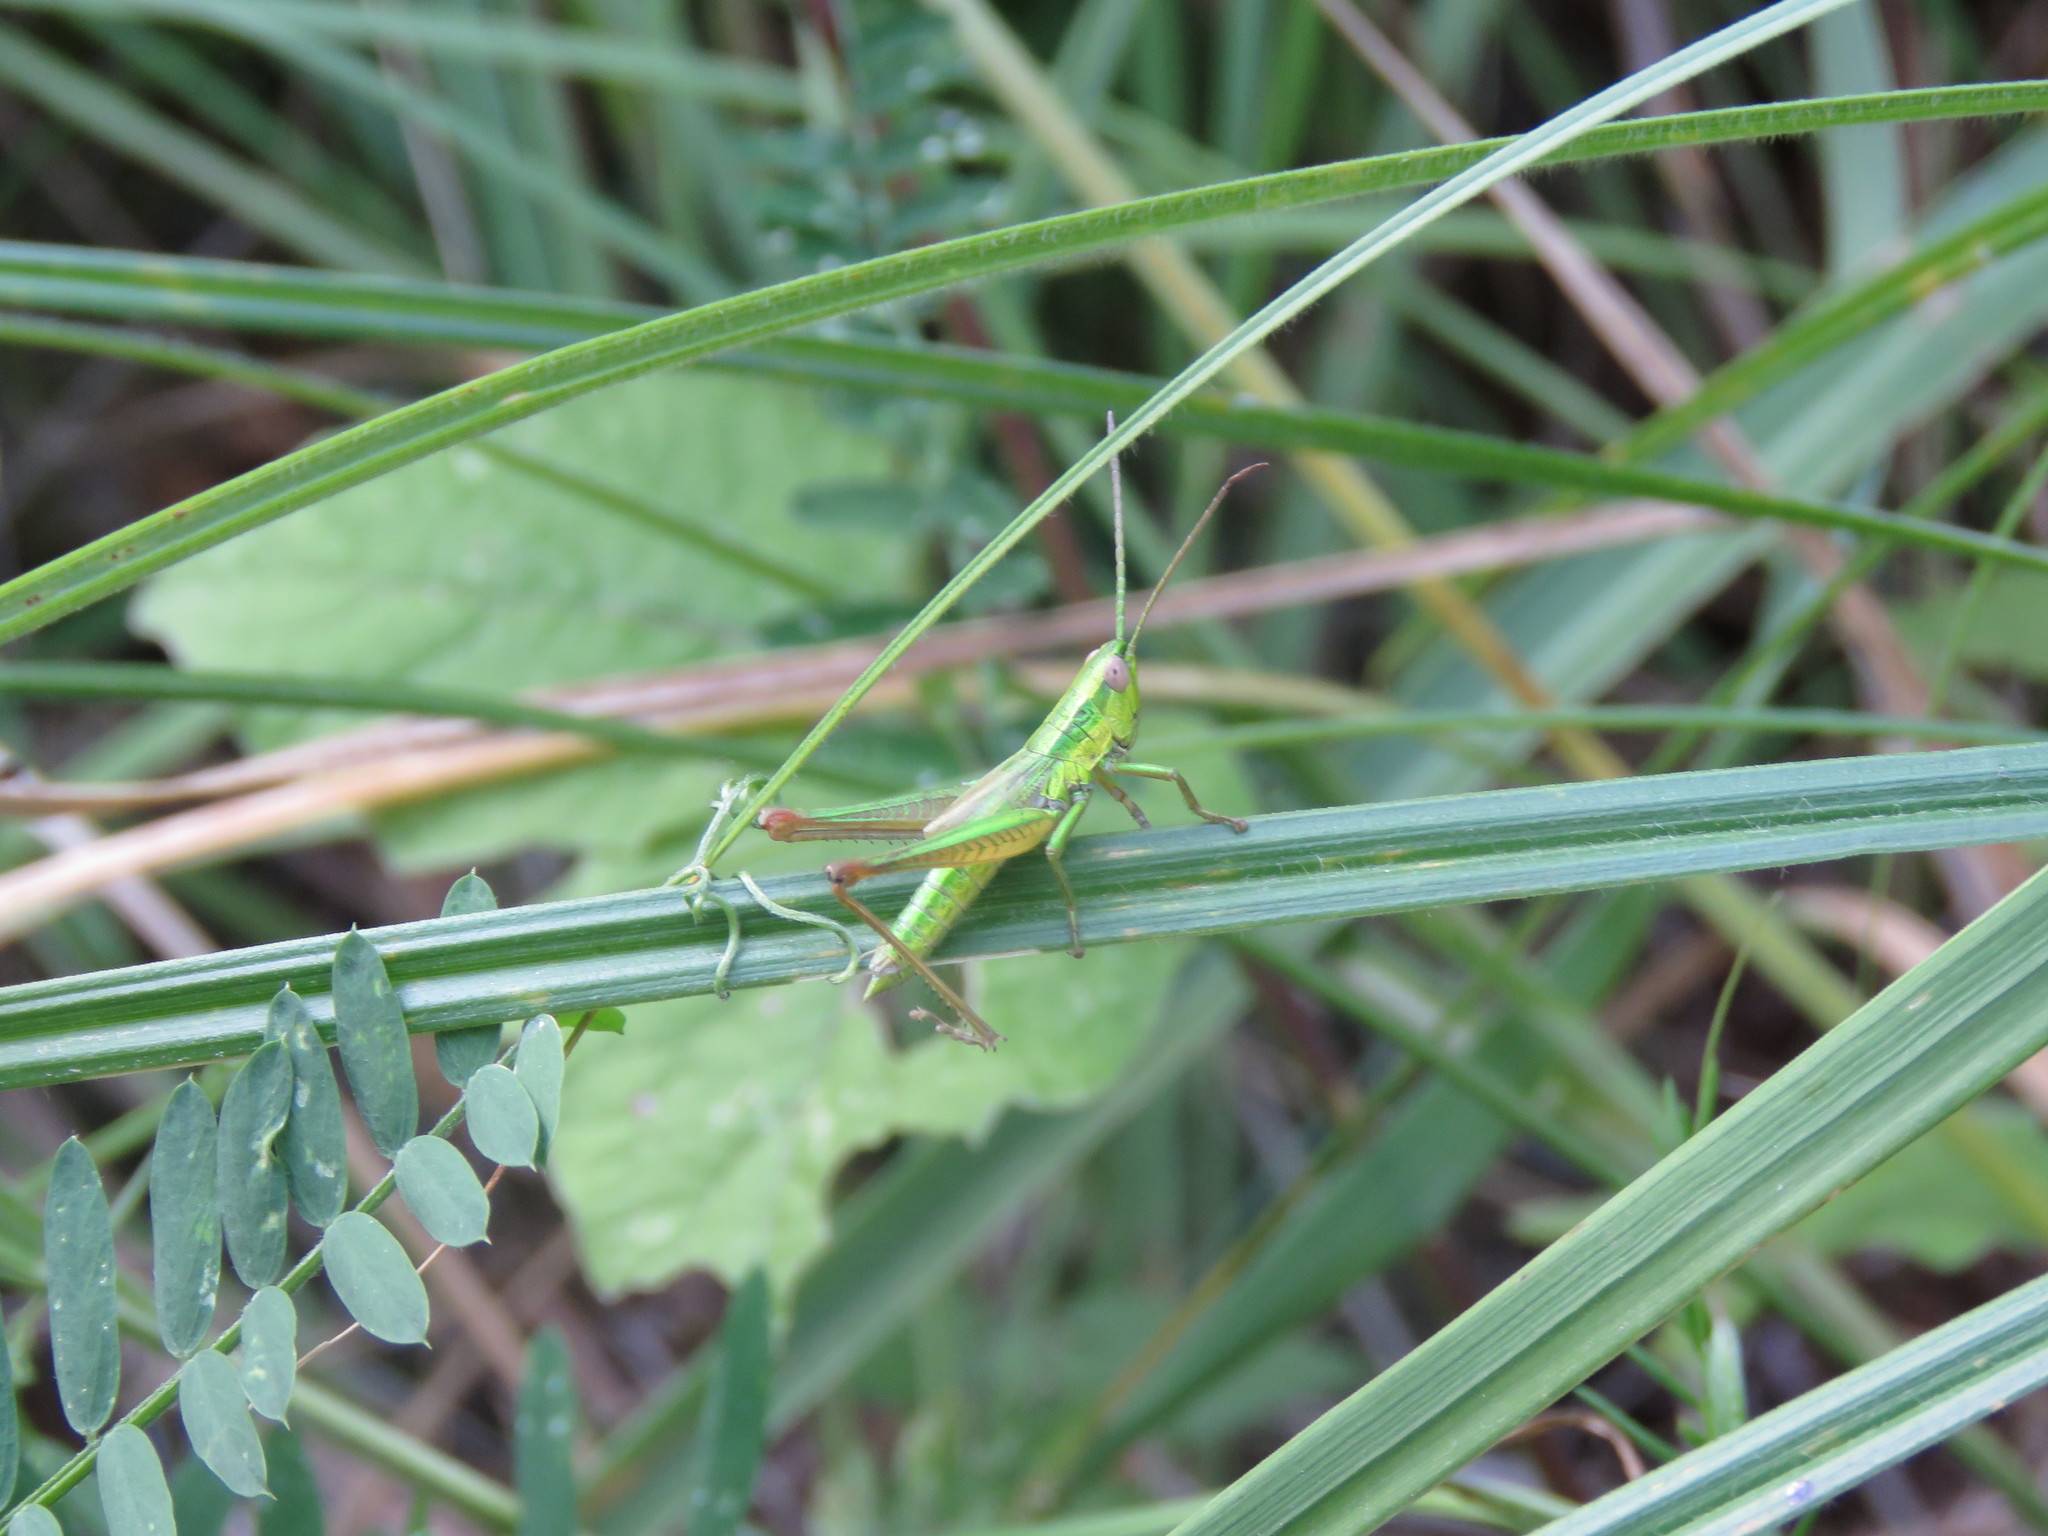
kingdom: Animalia
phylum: Arthropoda
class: Insecta
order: Orthoptera
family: Acrididae
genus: Euthystira
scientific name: Euthystira brachyptera
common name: Small gold grasshopper
